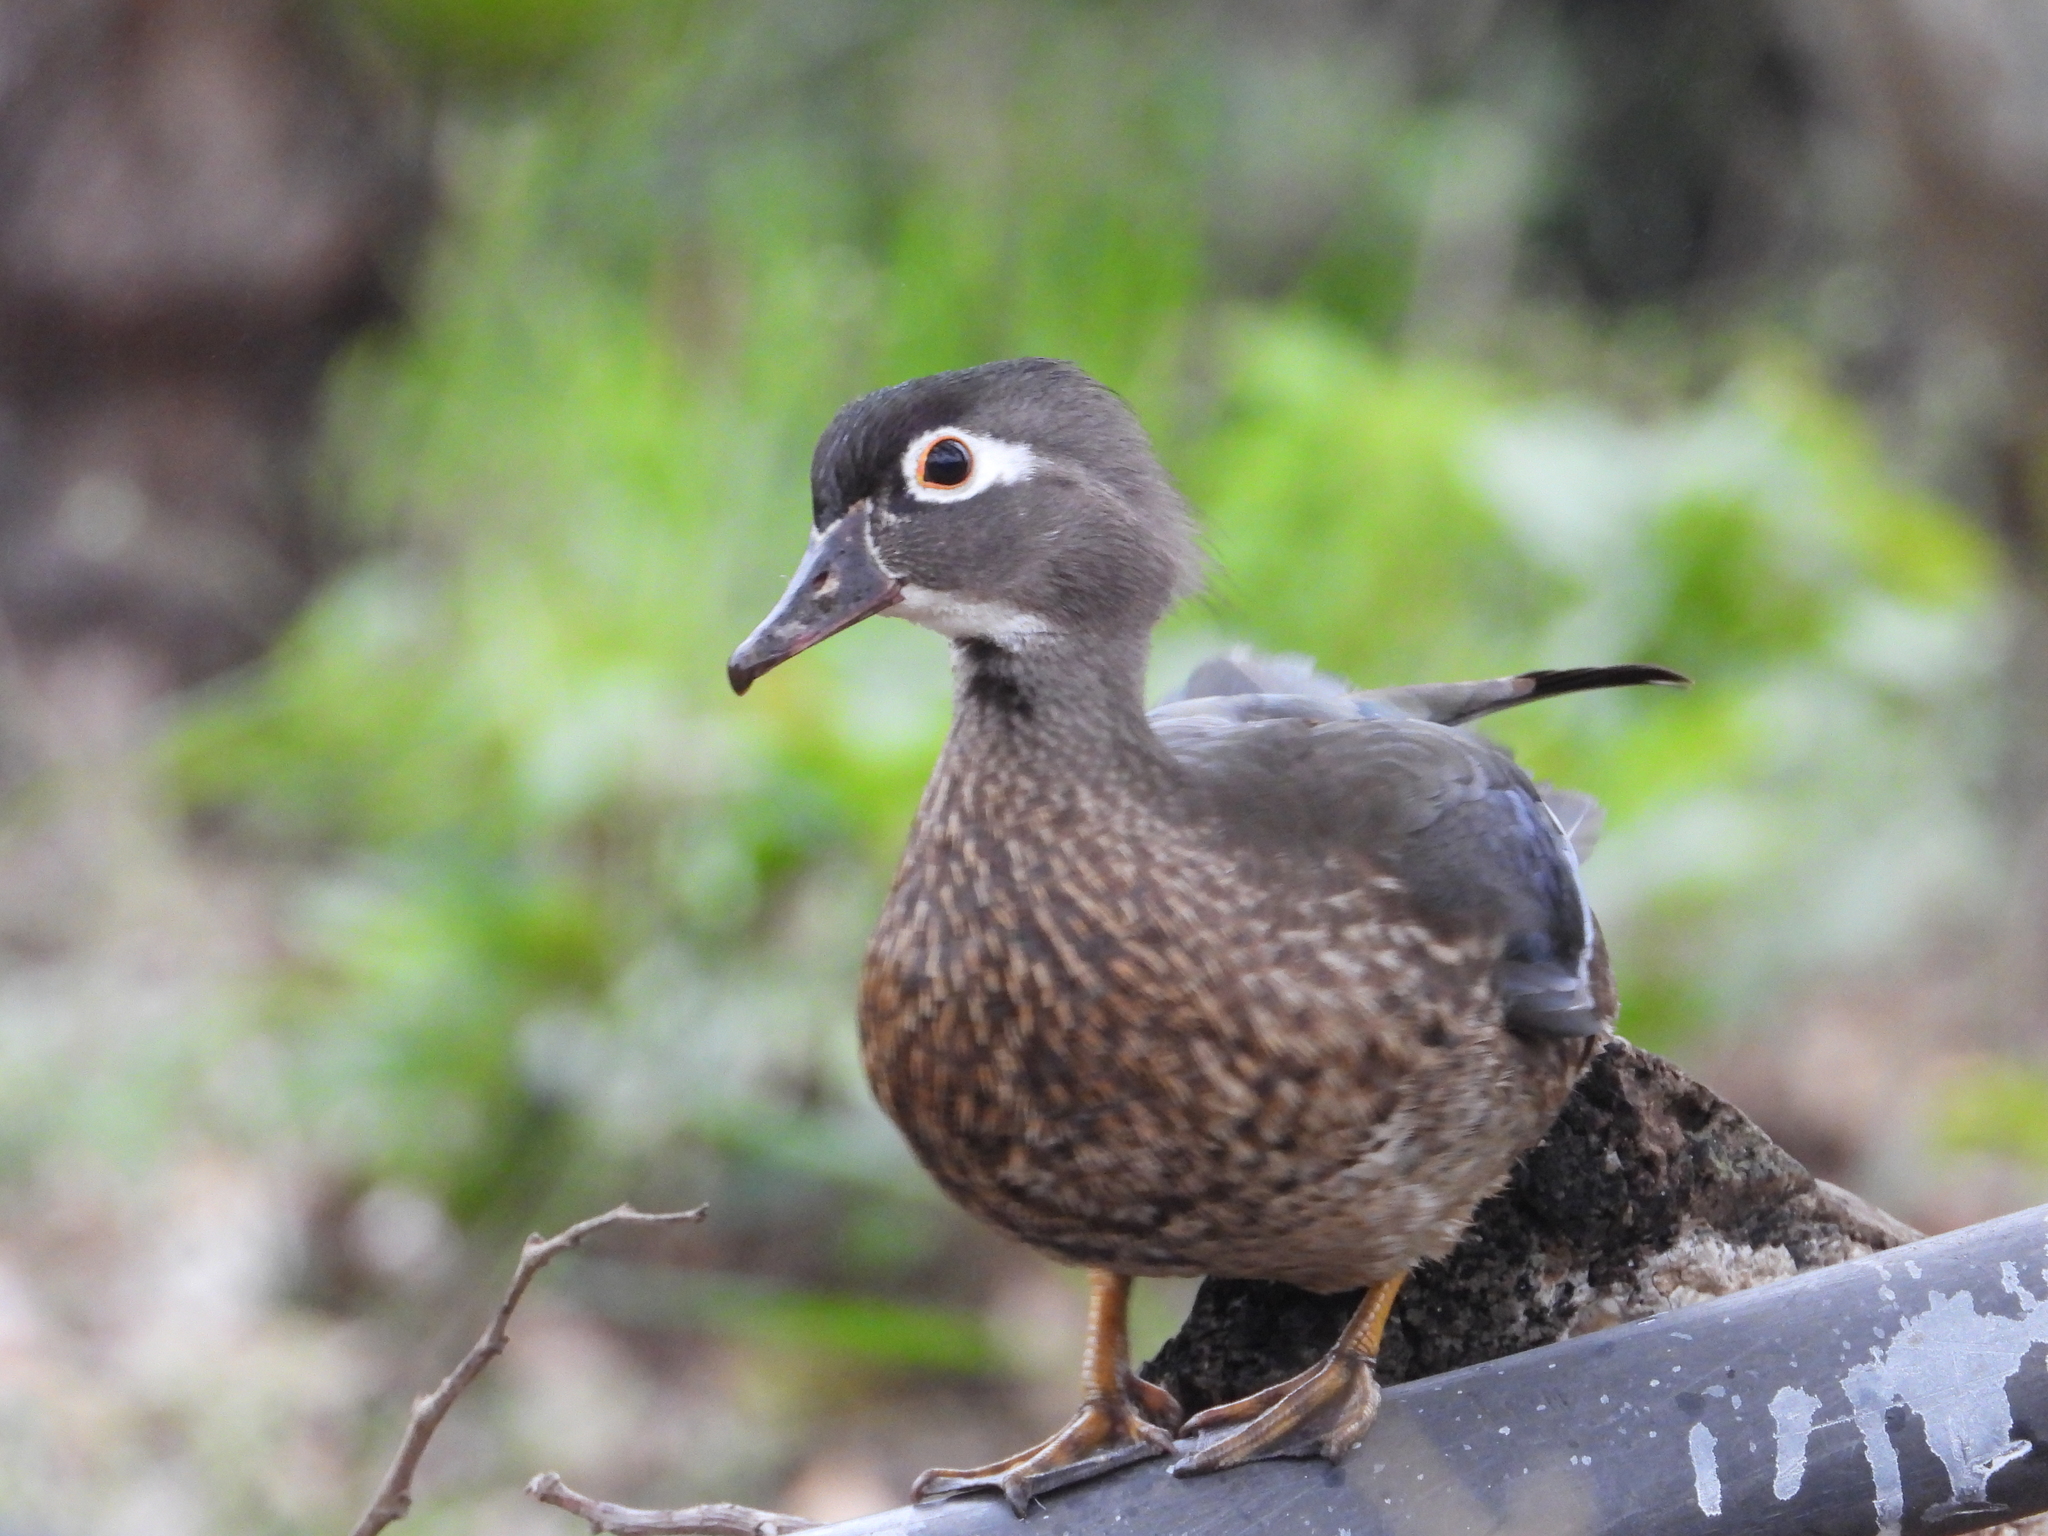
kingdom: Animalia
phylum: Chordata
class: Aves
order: Anseriformes
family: Anatidae
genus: Aix
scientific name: Aix sponsa
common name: Wood duck
